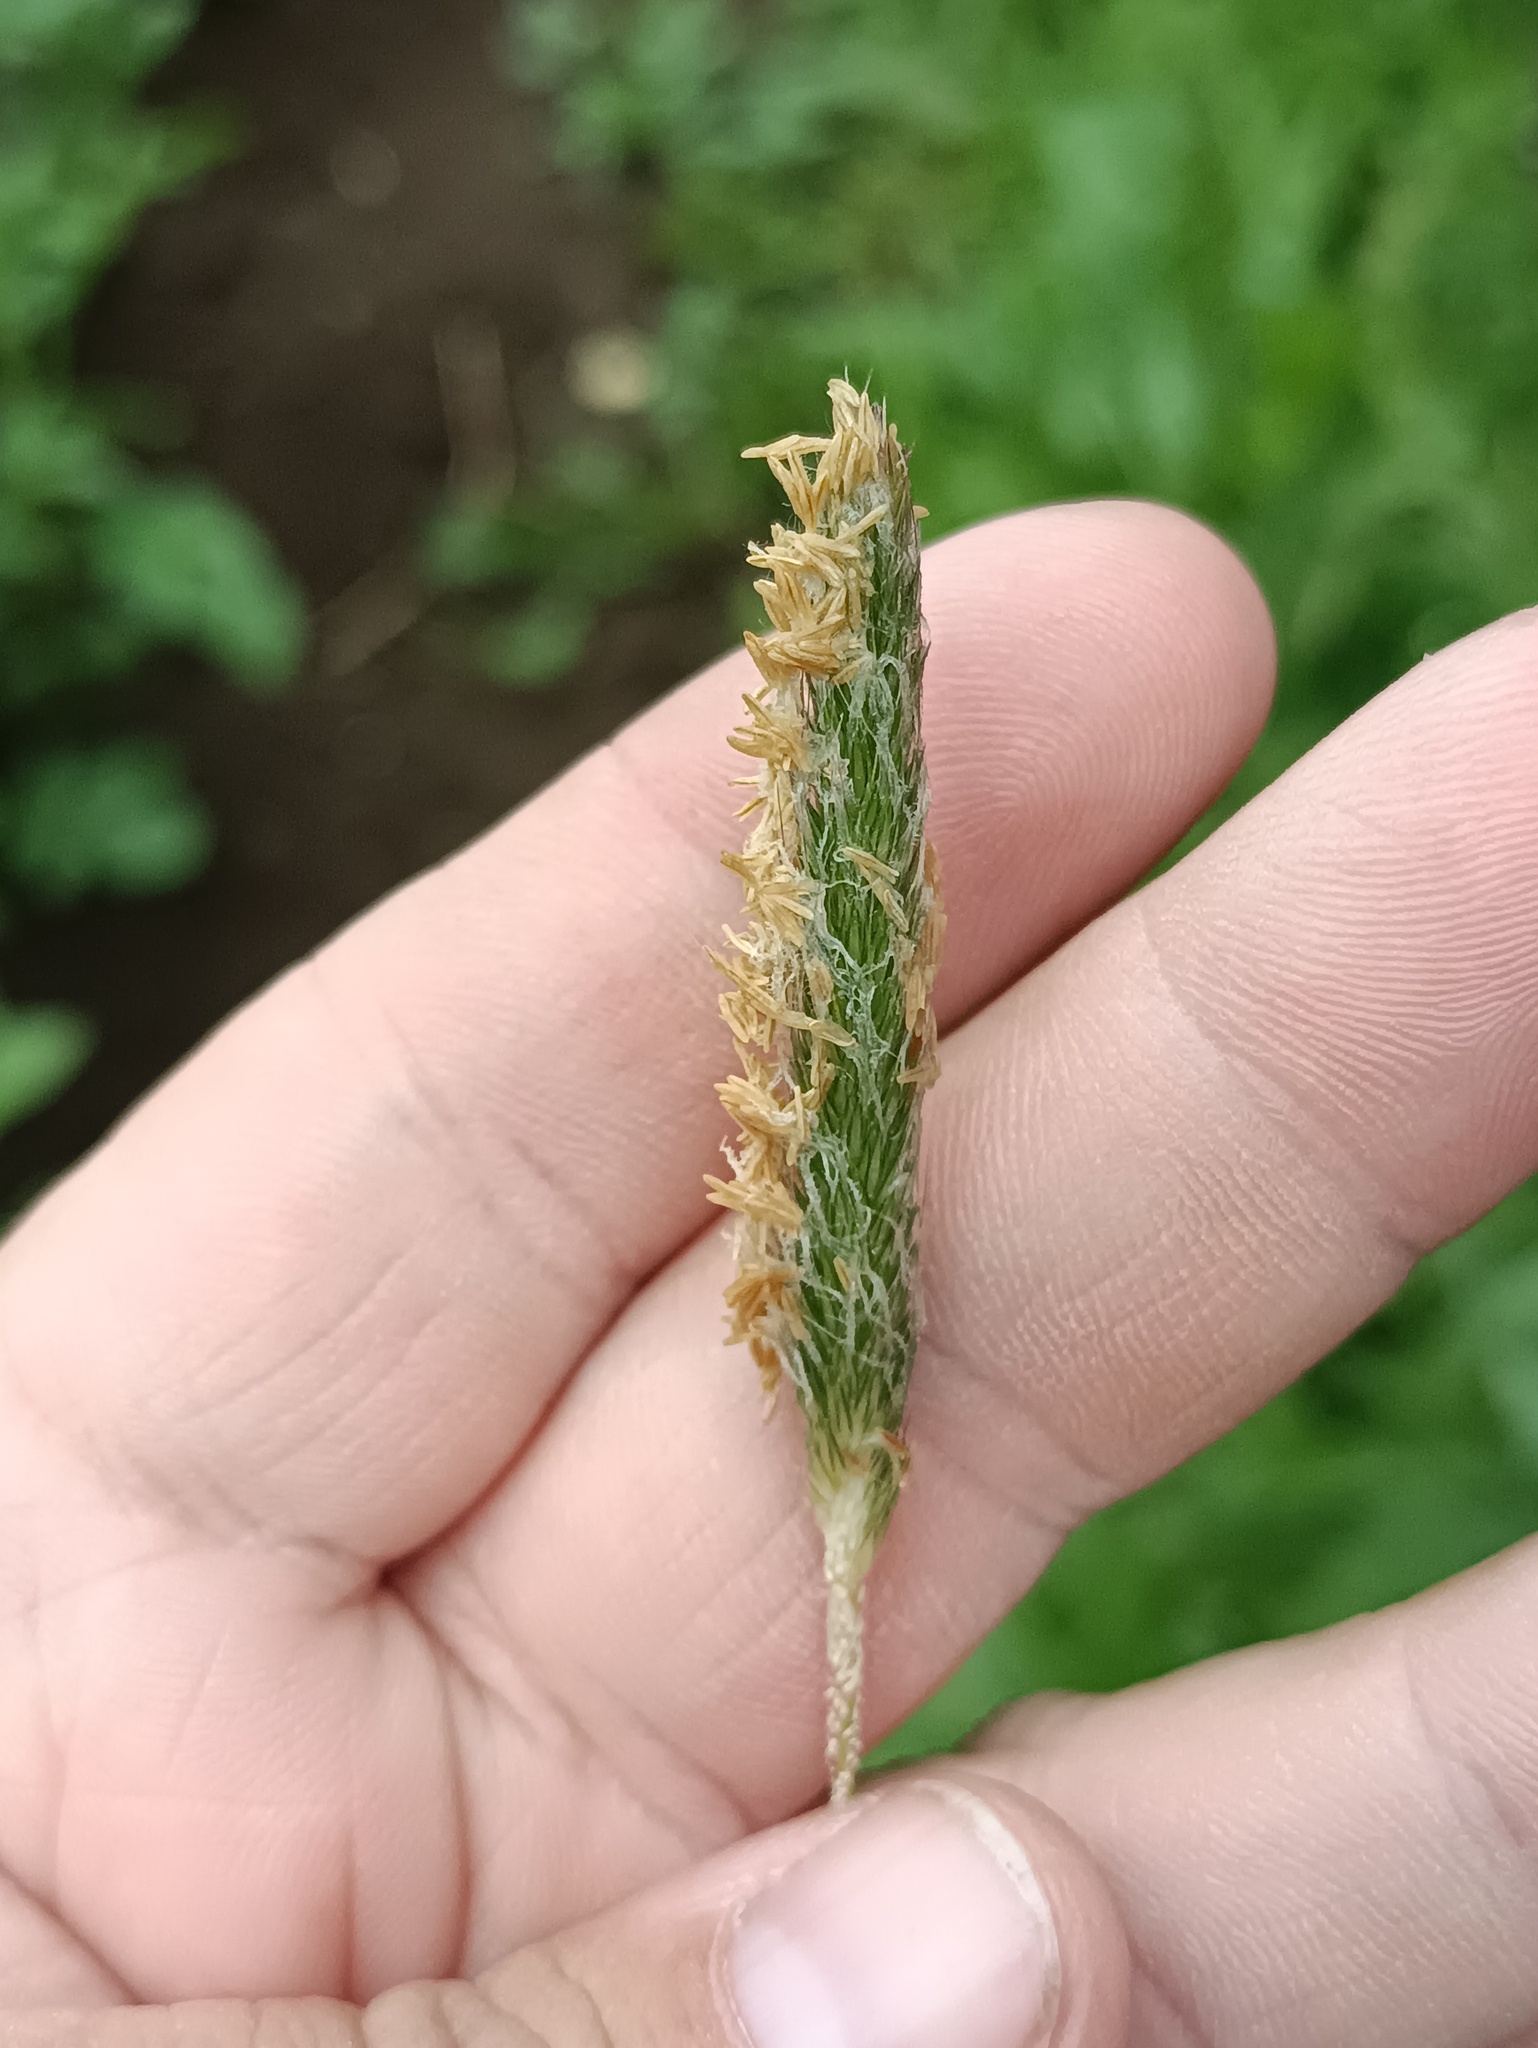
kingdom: Plantae
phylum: Tracheophyta
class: Liliopsida
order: Poales
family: Poaceae
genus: Alopecurus
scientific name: Alopecurus pratensis
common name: Meadow foxtail
